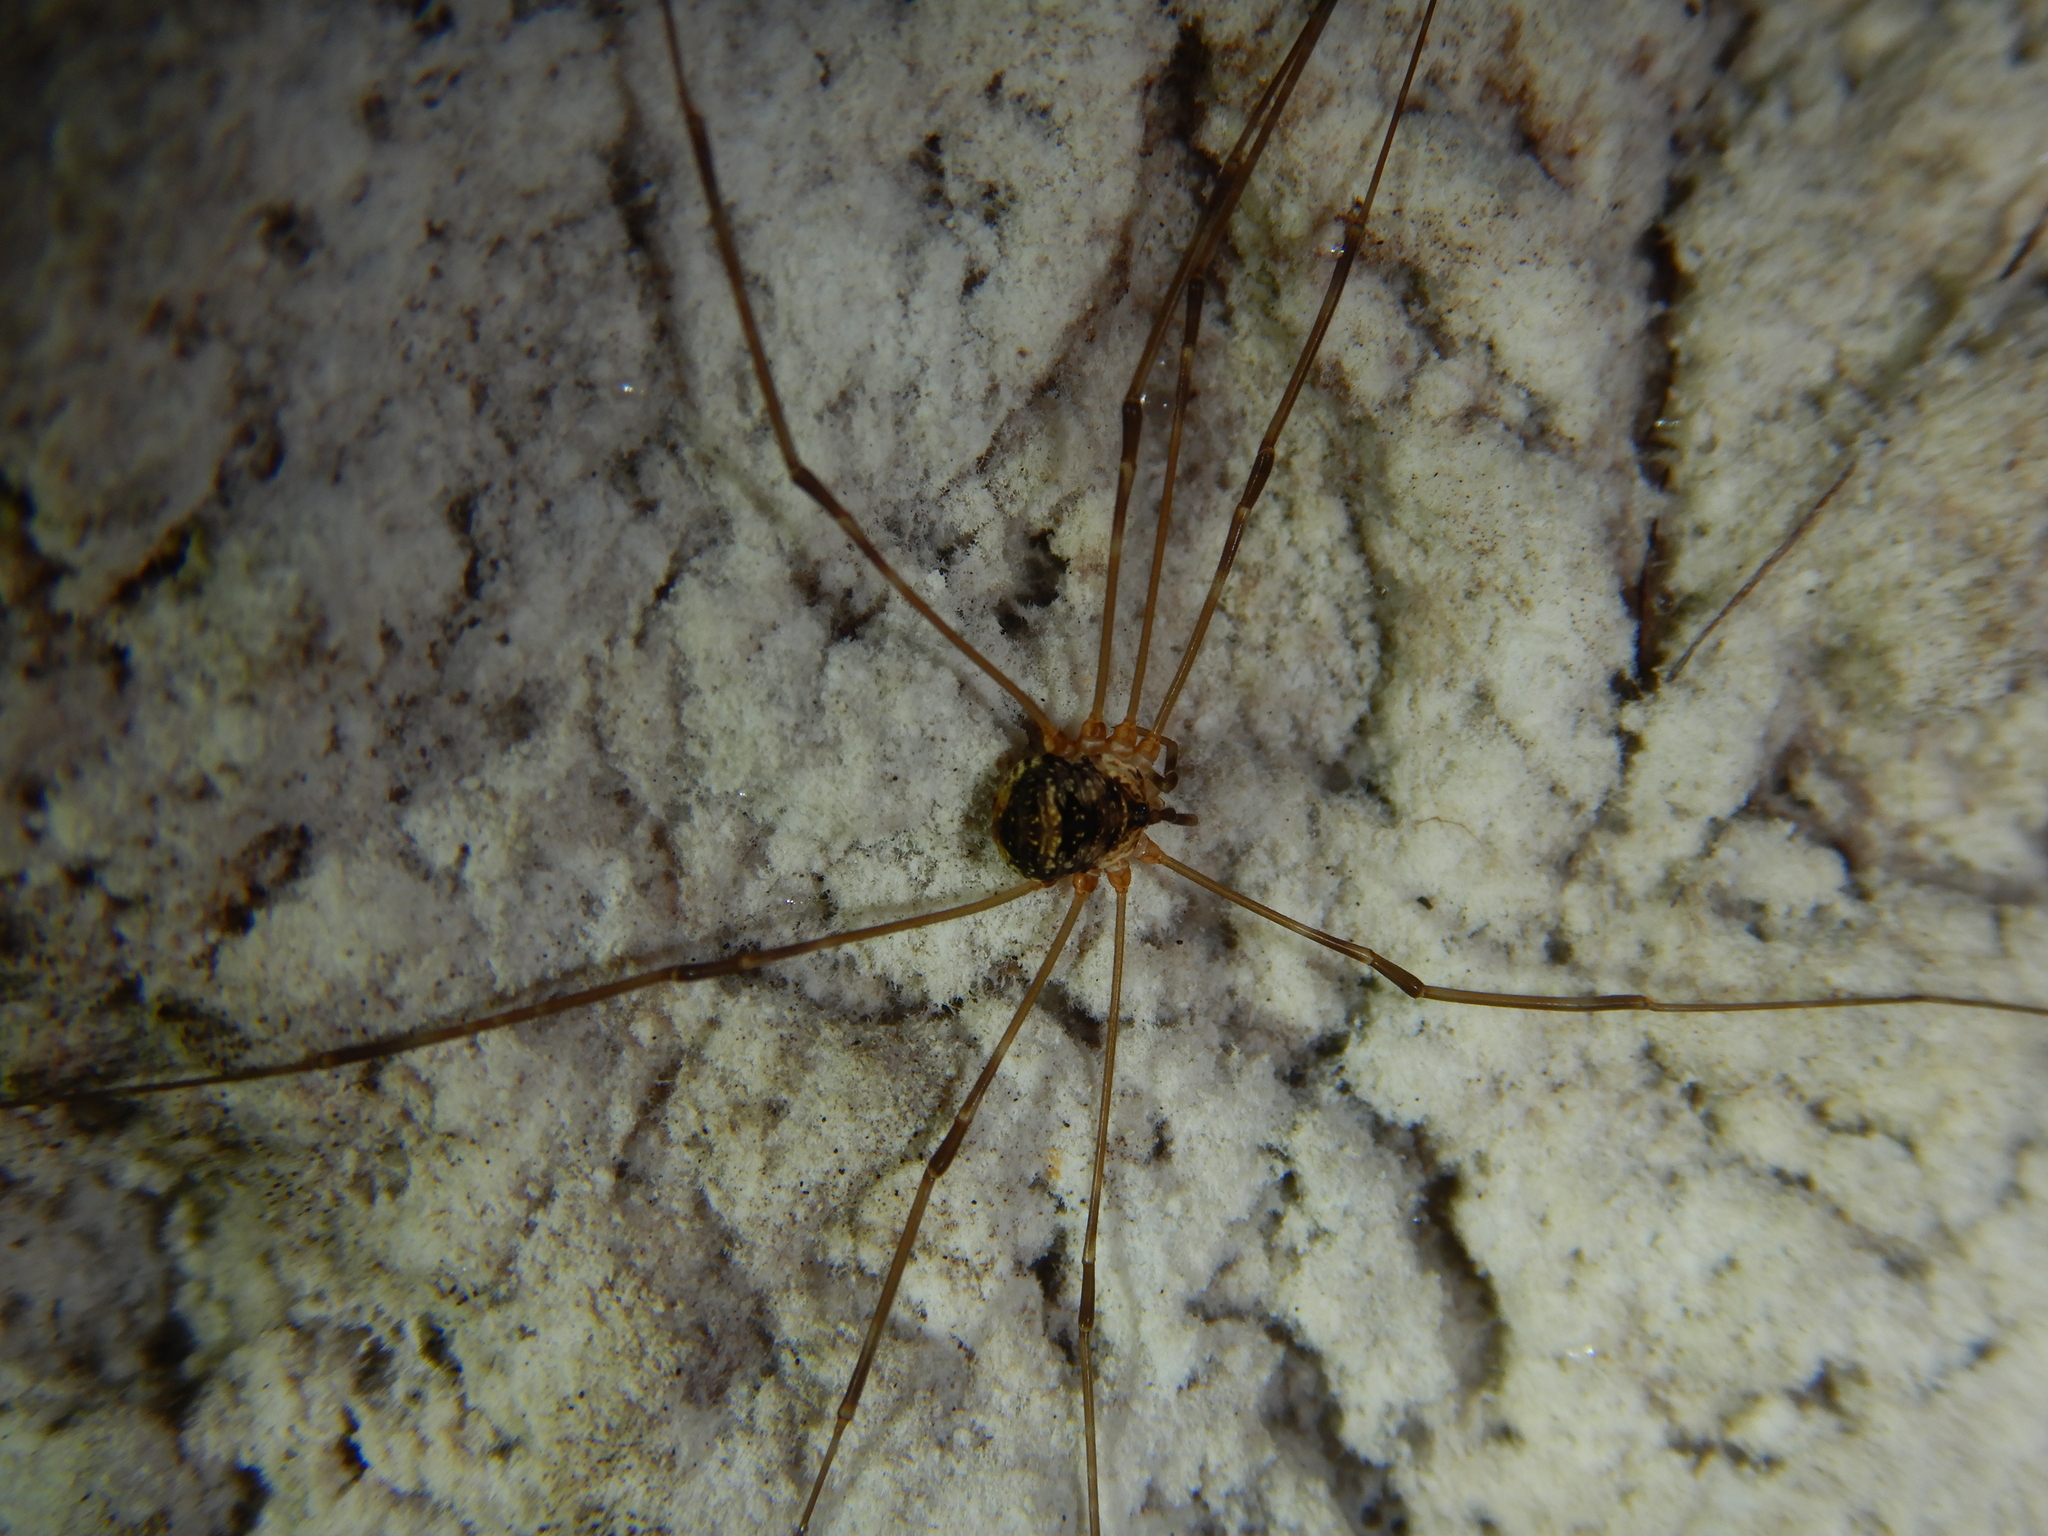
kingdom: Animalia
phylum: Arthropoda
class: Arachnida
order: Opiliones
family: Phalangiidae
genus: Amilenus
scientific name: Amilenus aurantiacus
